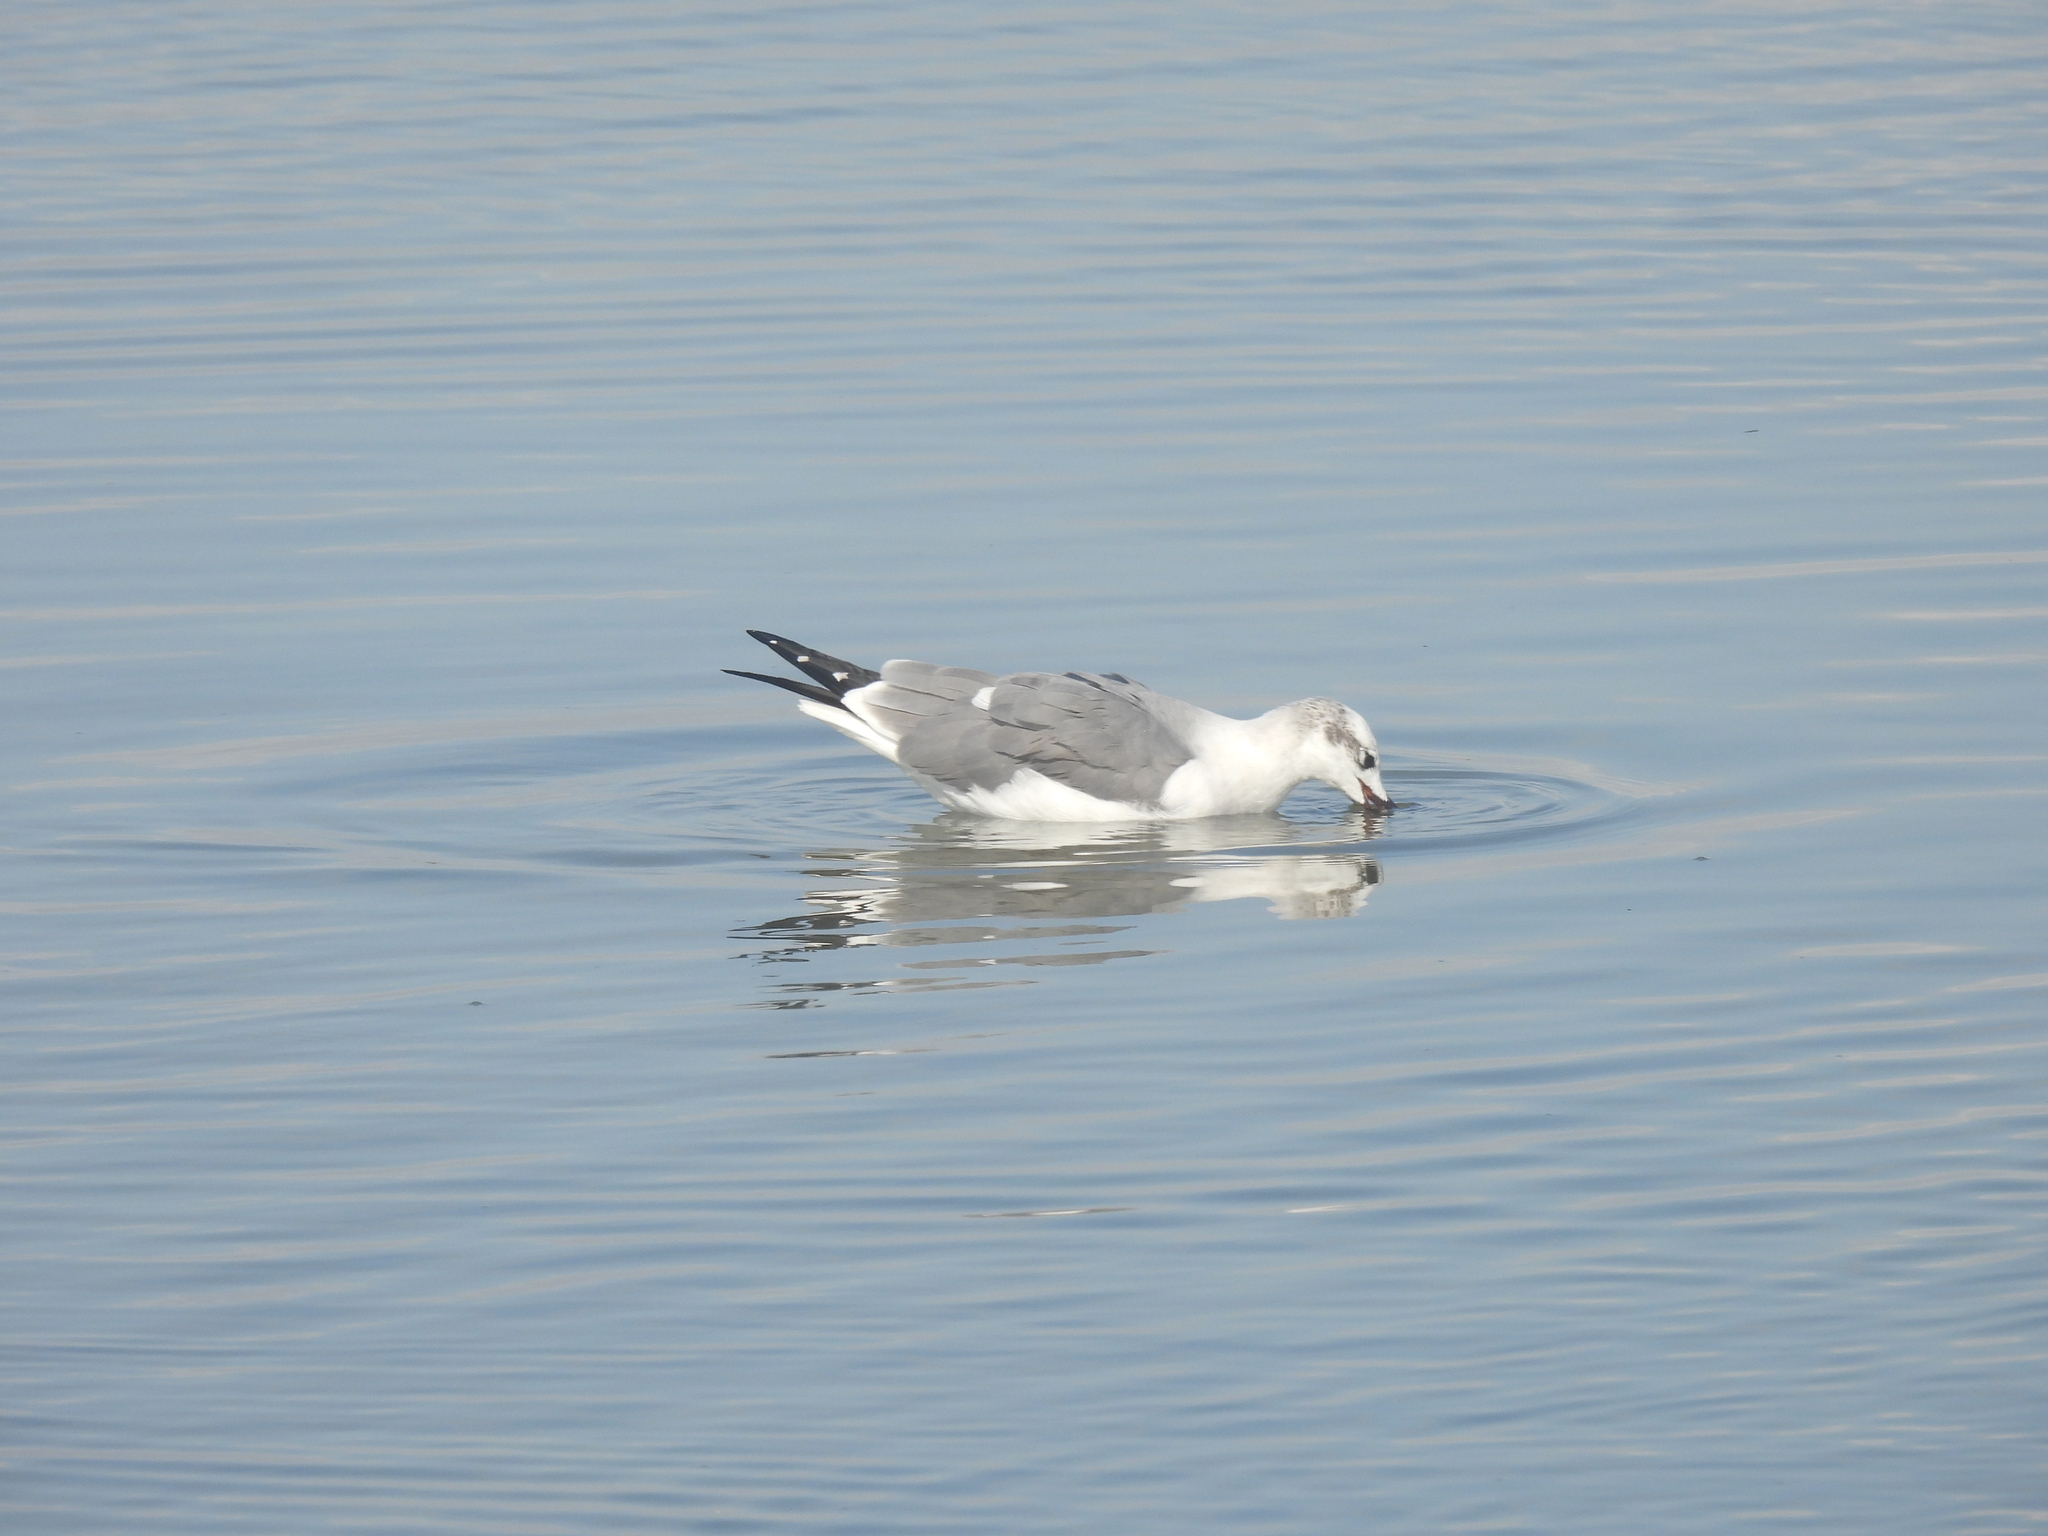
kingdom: Animalia
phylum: Chordata
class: Aves
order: Charadriiformes
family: Laridae
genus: Leucophaeus
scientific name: Leucophaeus atricilla
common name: Laughing gull
